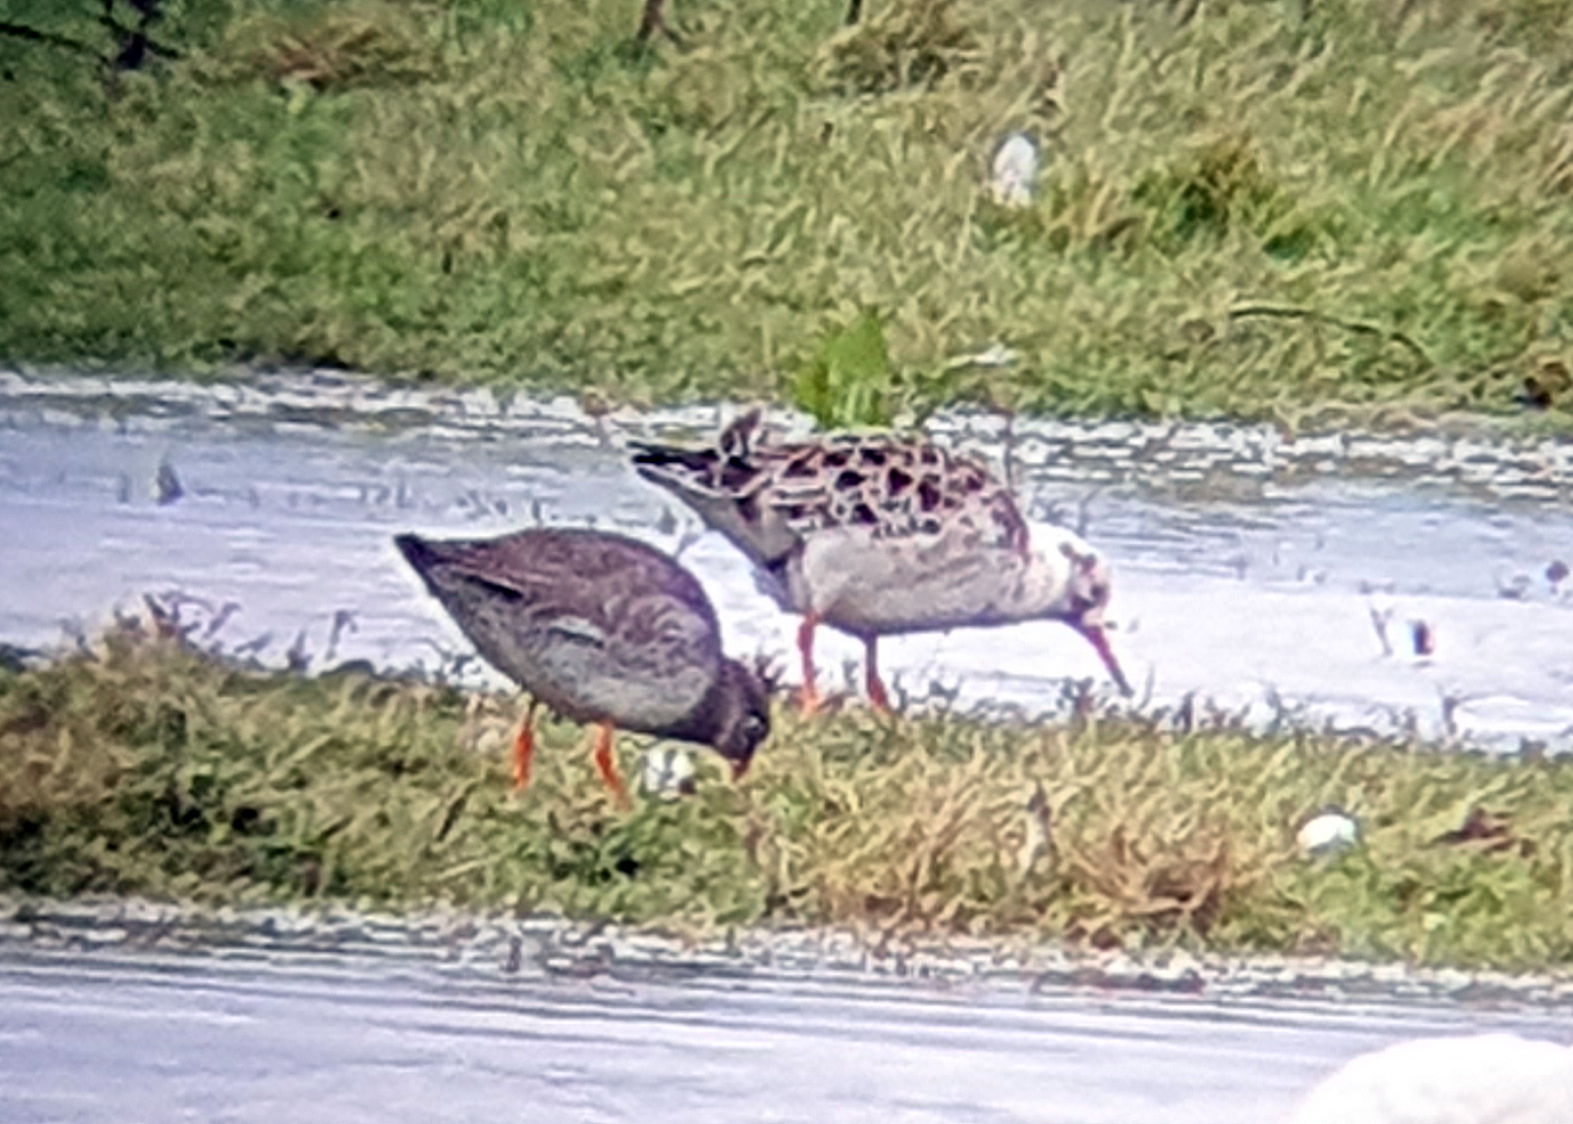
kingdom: Animalia
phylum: Chordata
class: Aves
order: Charadriiformes
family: Scolopacidae
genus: Calidris
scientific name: Calidris pugnax
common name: Ruff
